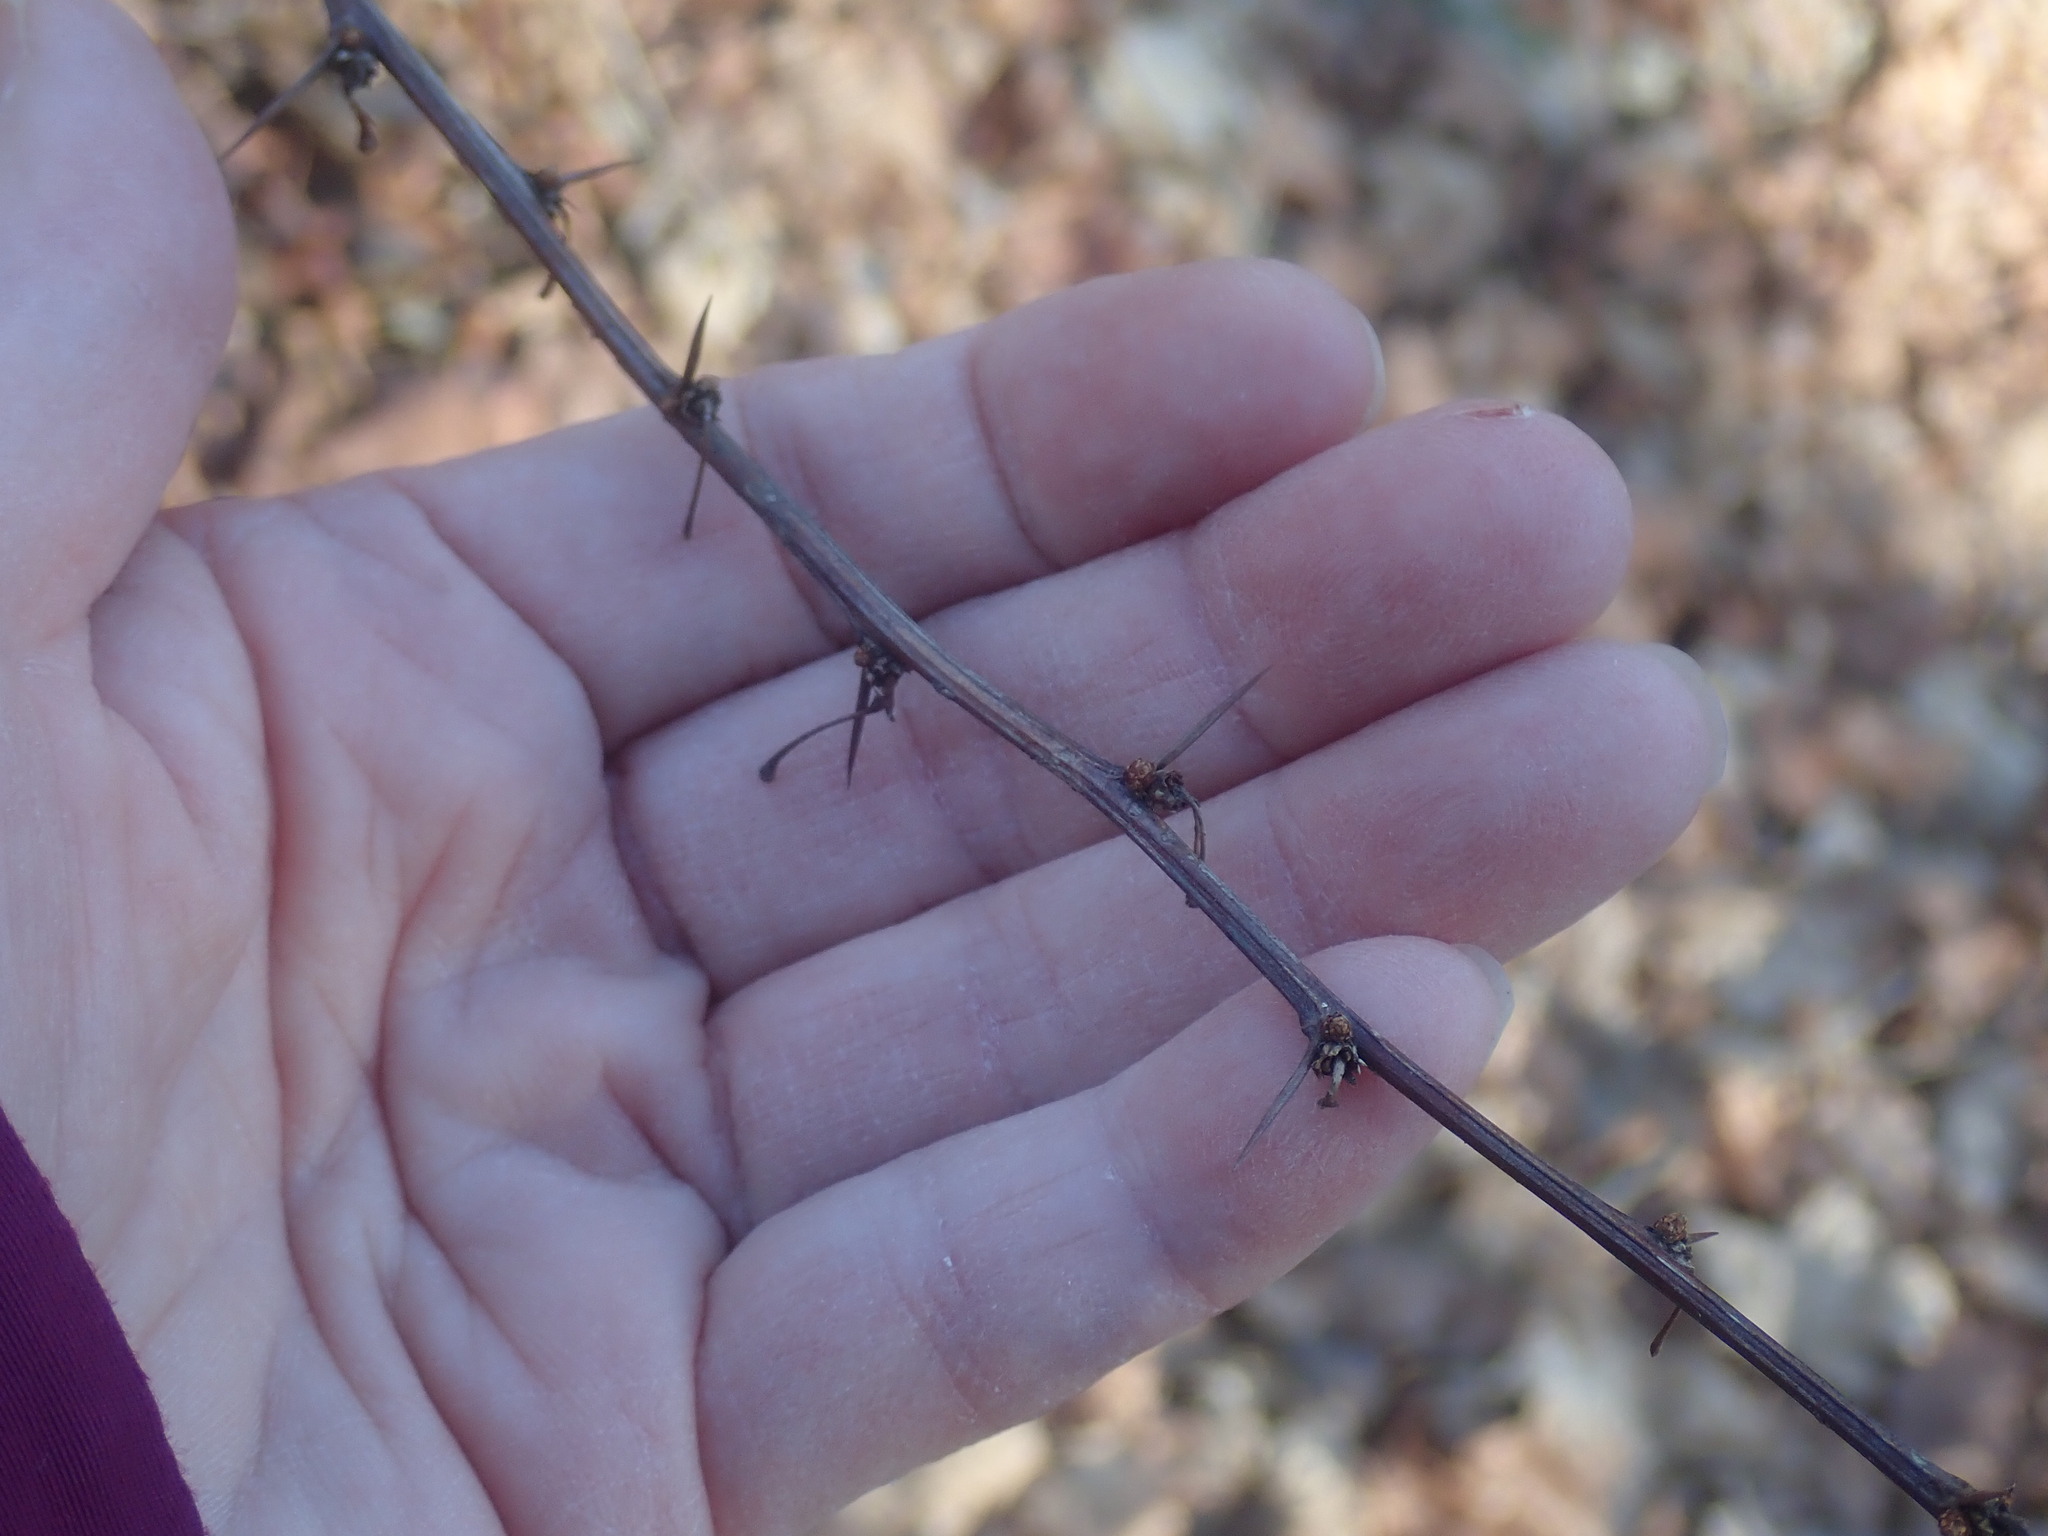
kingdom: Plantae
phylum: Tracheophyta
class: Magnoliopsida
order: Ranunculales
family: Berberidaceae
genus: Berberis
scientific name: Berberis thunbergii
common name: Japanese barberry
